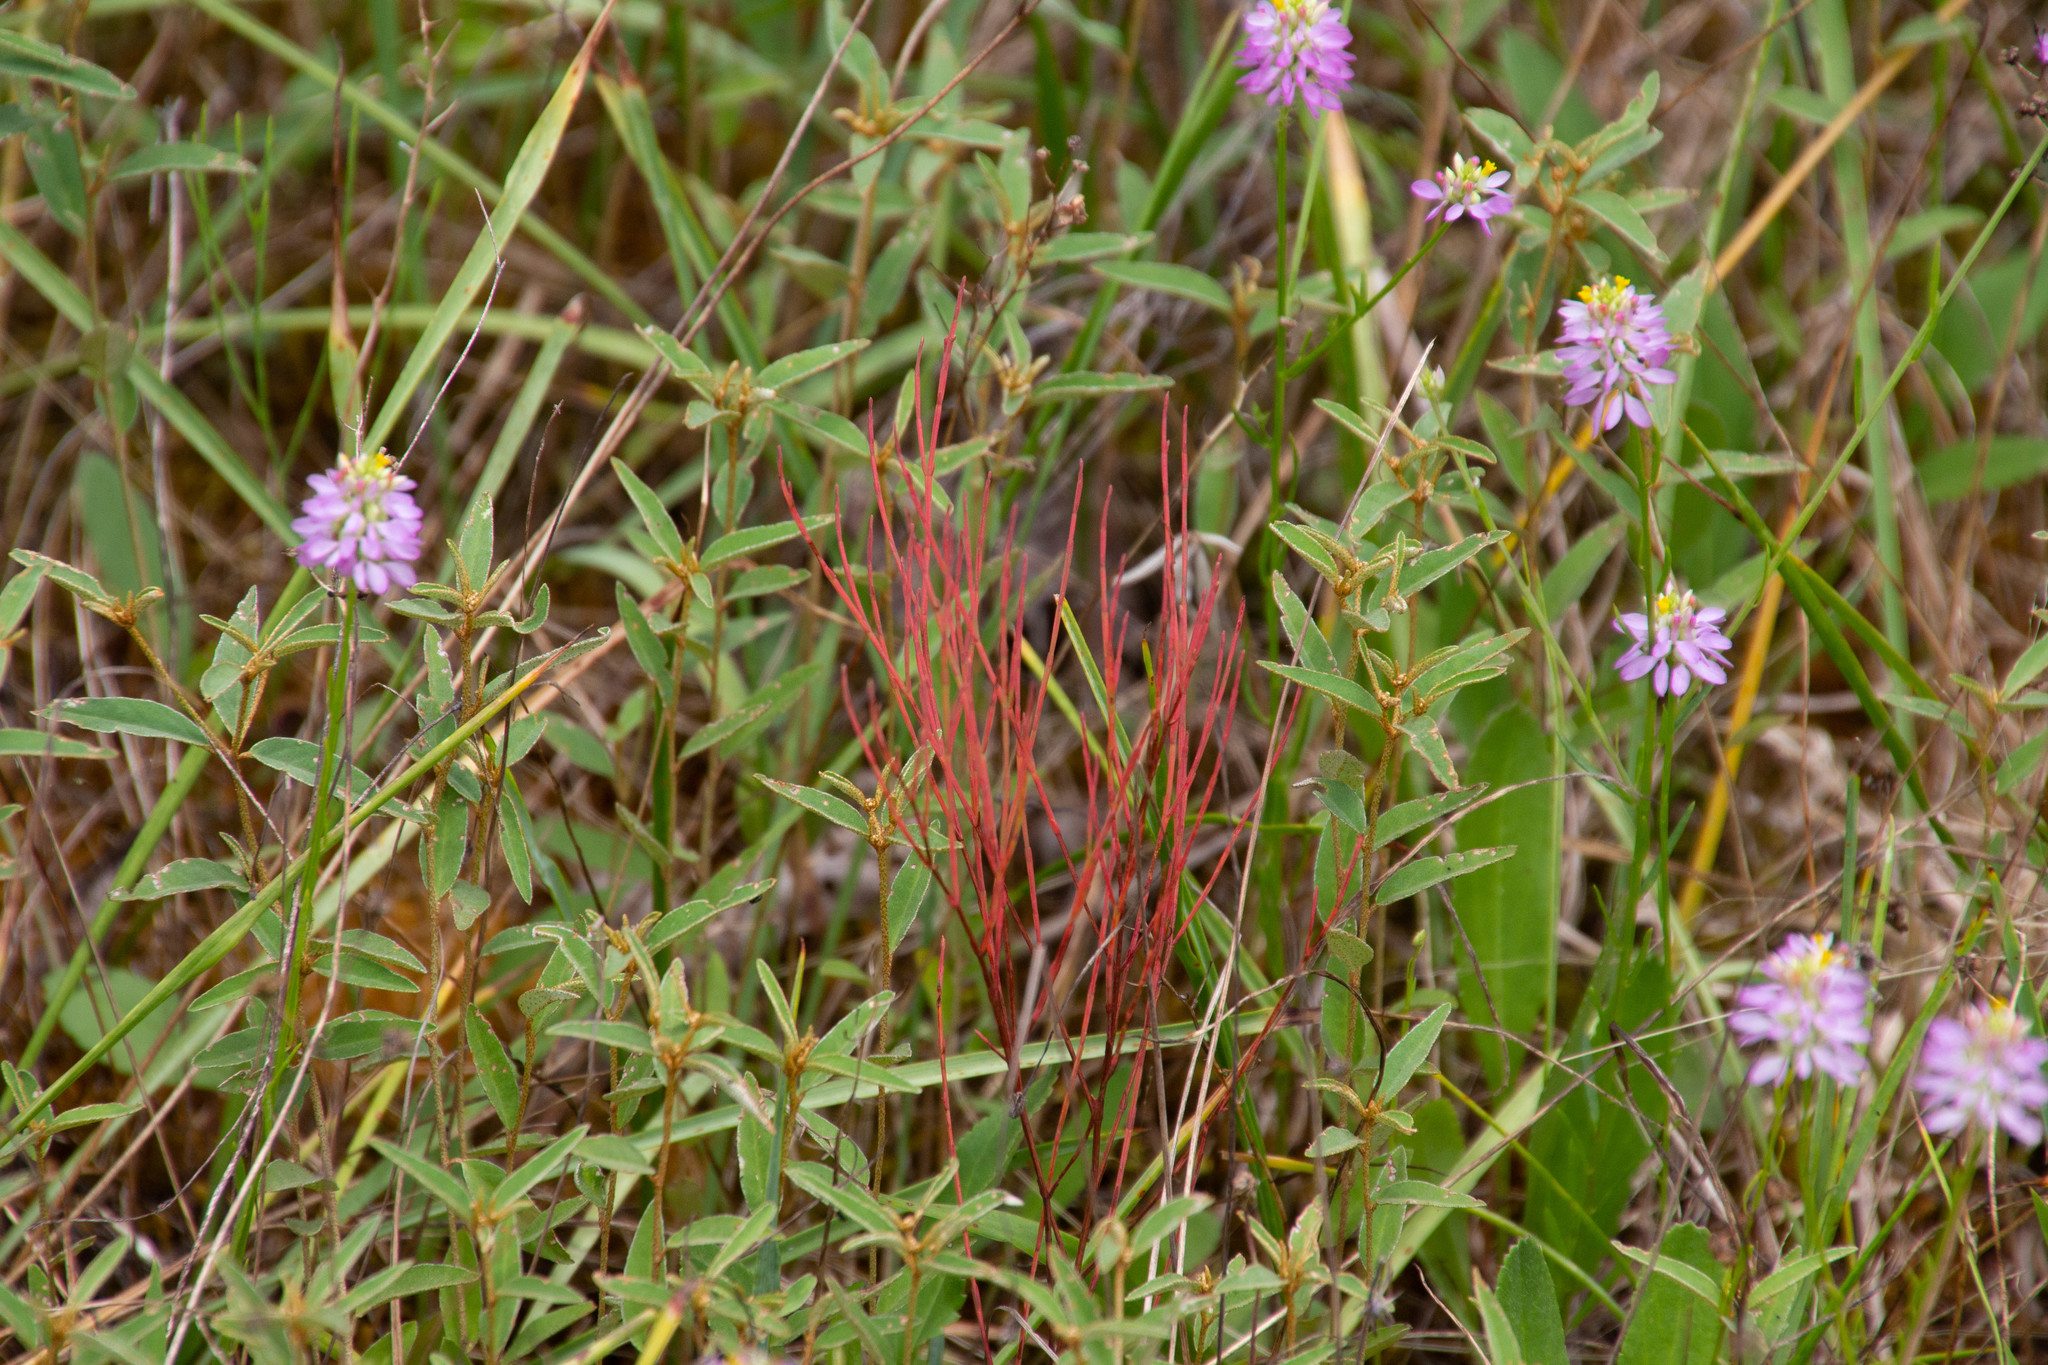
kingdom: Plantae
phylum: Tracheophyta
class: Magnoliopsida
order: Malpighiales
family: Hypericaceae
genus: Hypericum
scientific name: Hypericum gentianoides
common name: Gentian-leaved st. john's-wort
